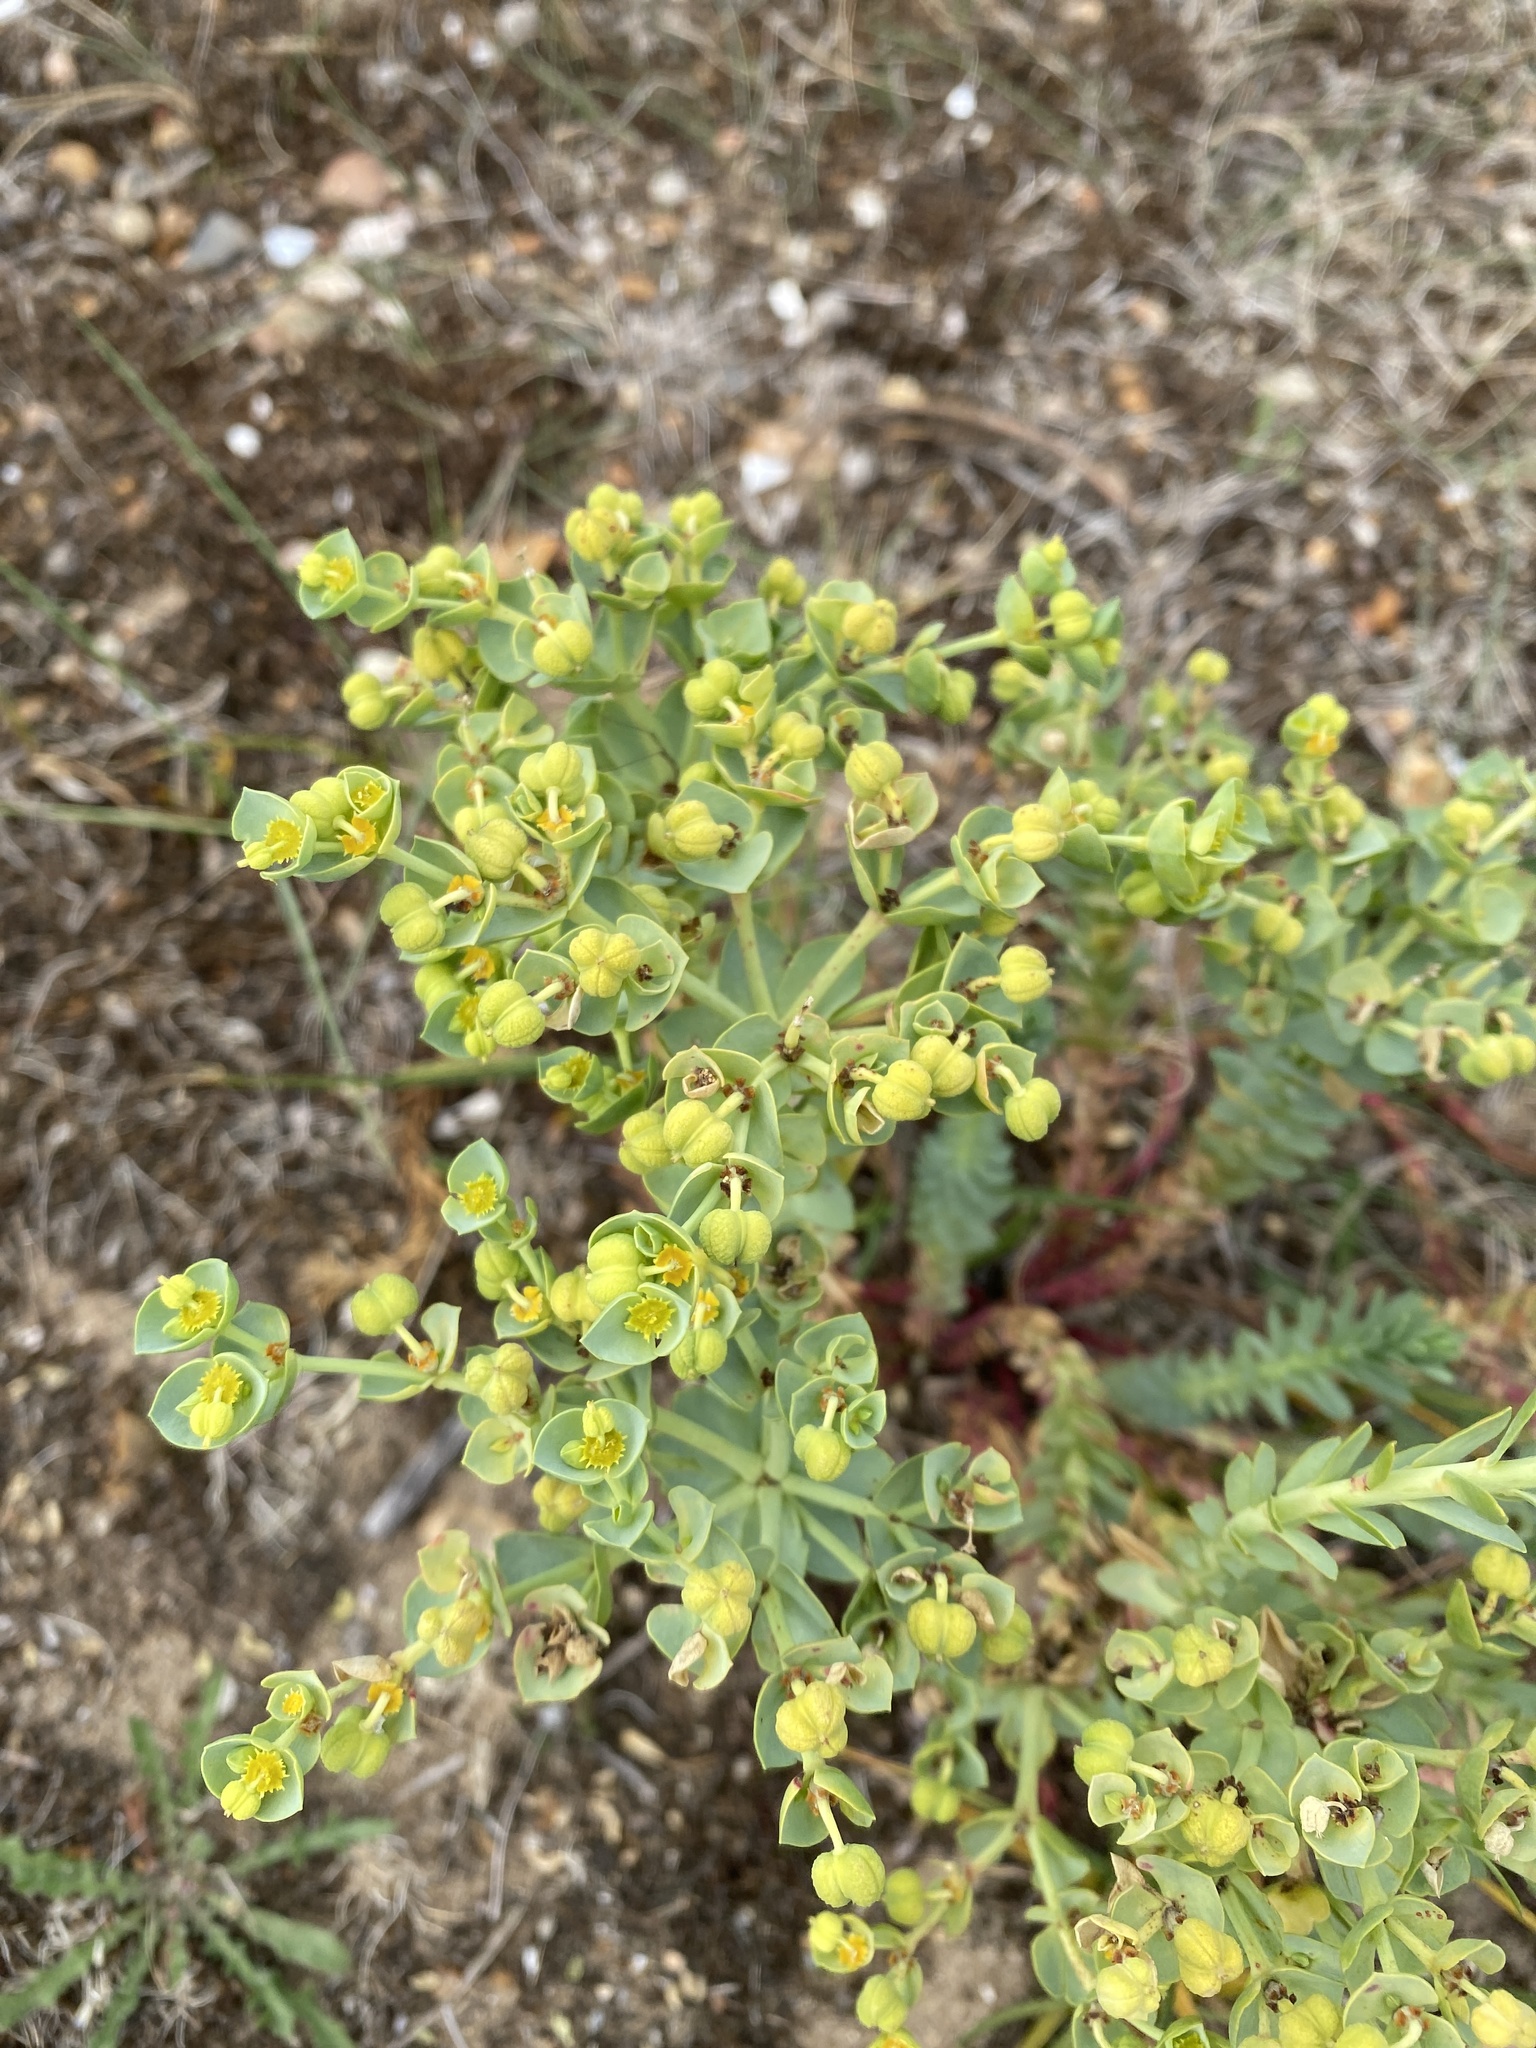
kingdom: Plantae
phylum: Tracheophyta
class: Magnoliopsida
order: Malpighiales
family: Euphorbiaceae
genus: Euphorbia
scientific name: Euphorbia paralias
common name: Sea spurge
